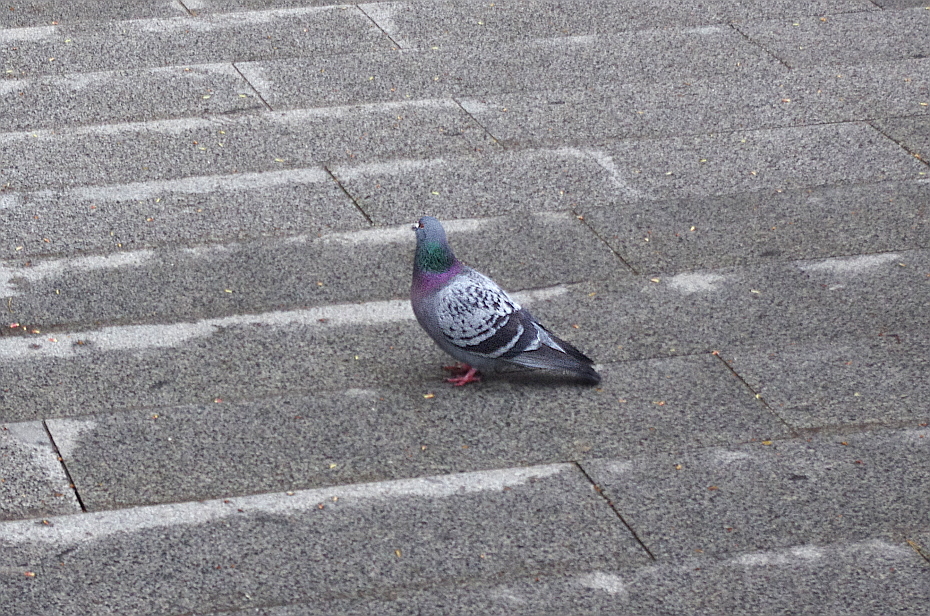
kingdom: Animalia
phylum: Chordata
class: Aves
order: Columbiformes
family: Columbidae
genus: Columba
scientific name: Columba livia
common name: Rock pigeon
